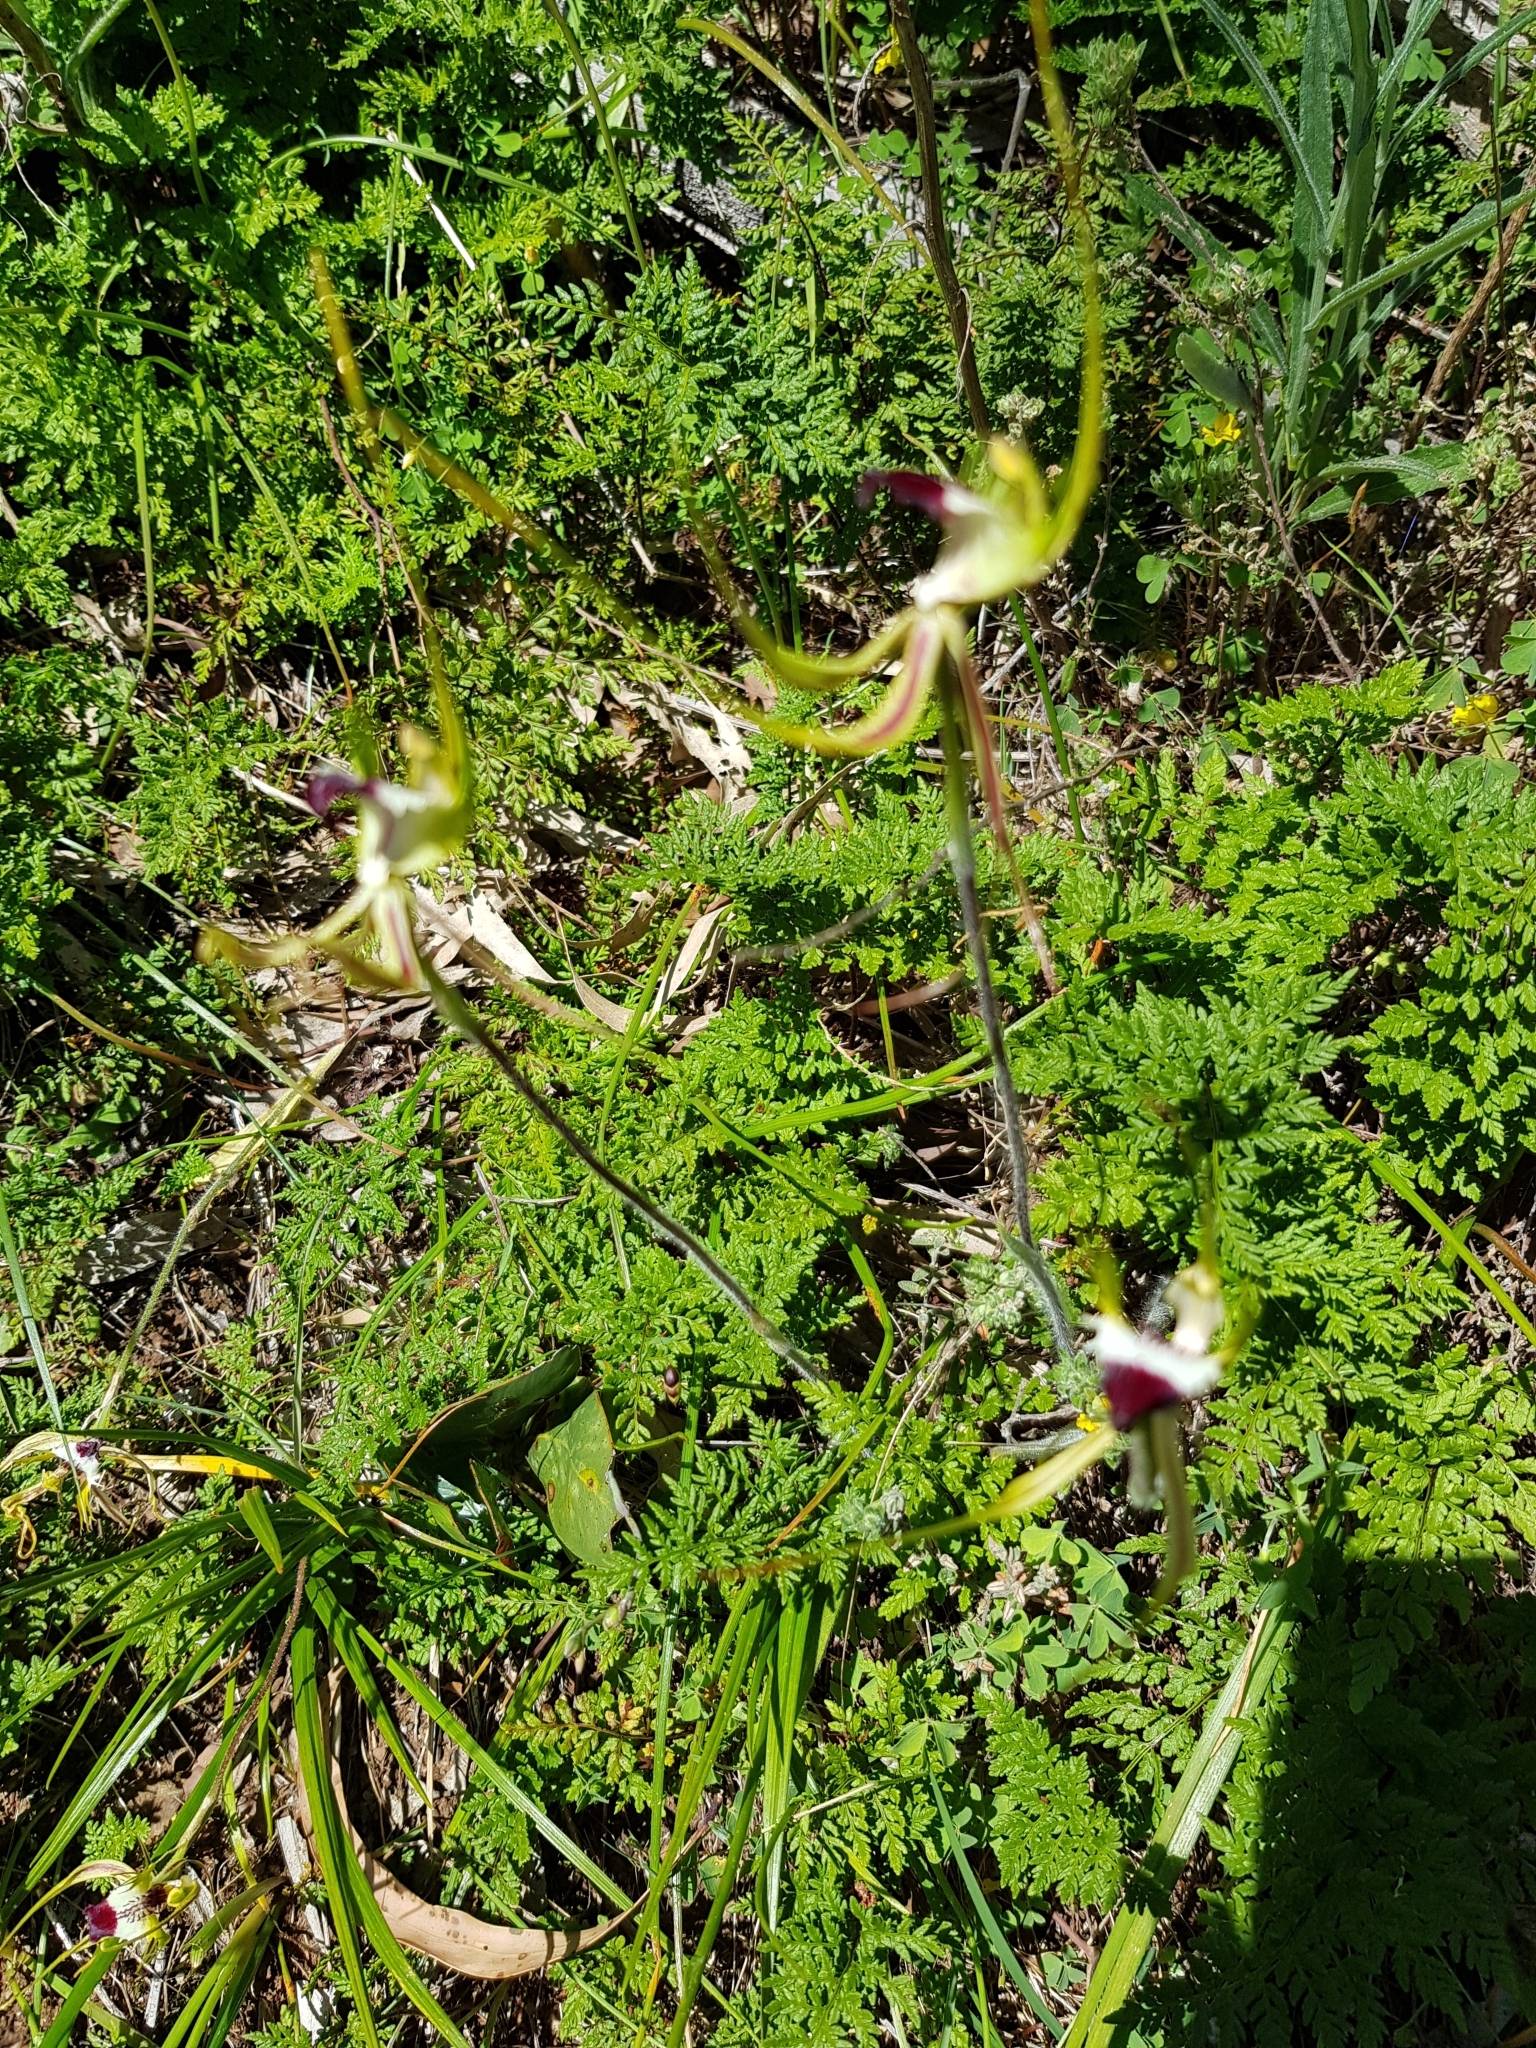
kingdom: Plantae
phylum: Tracheophyta
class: Liliopsida
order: Asparagales
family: Orchidaceae
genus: Caladenia
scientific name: Caladenia tentaculata
